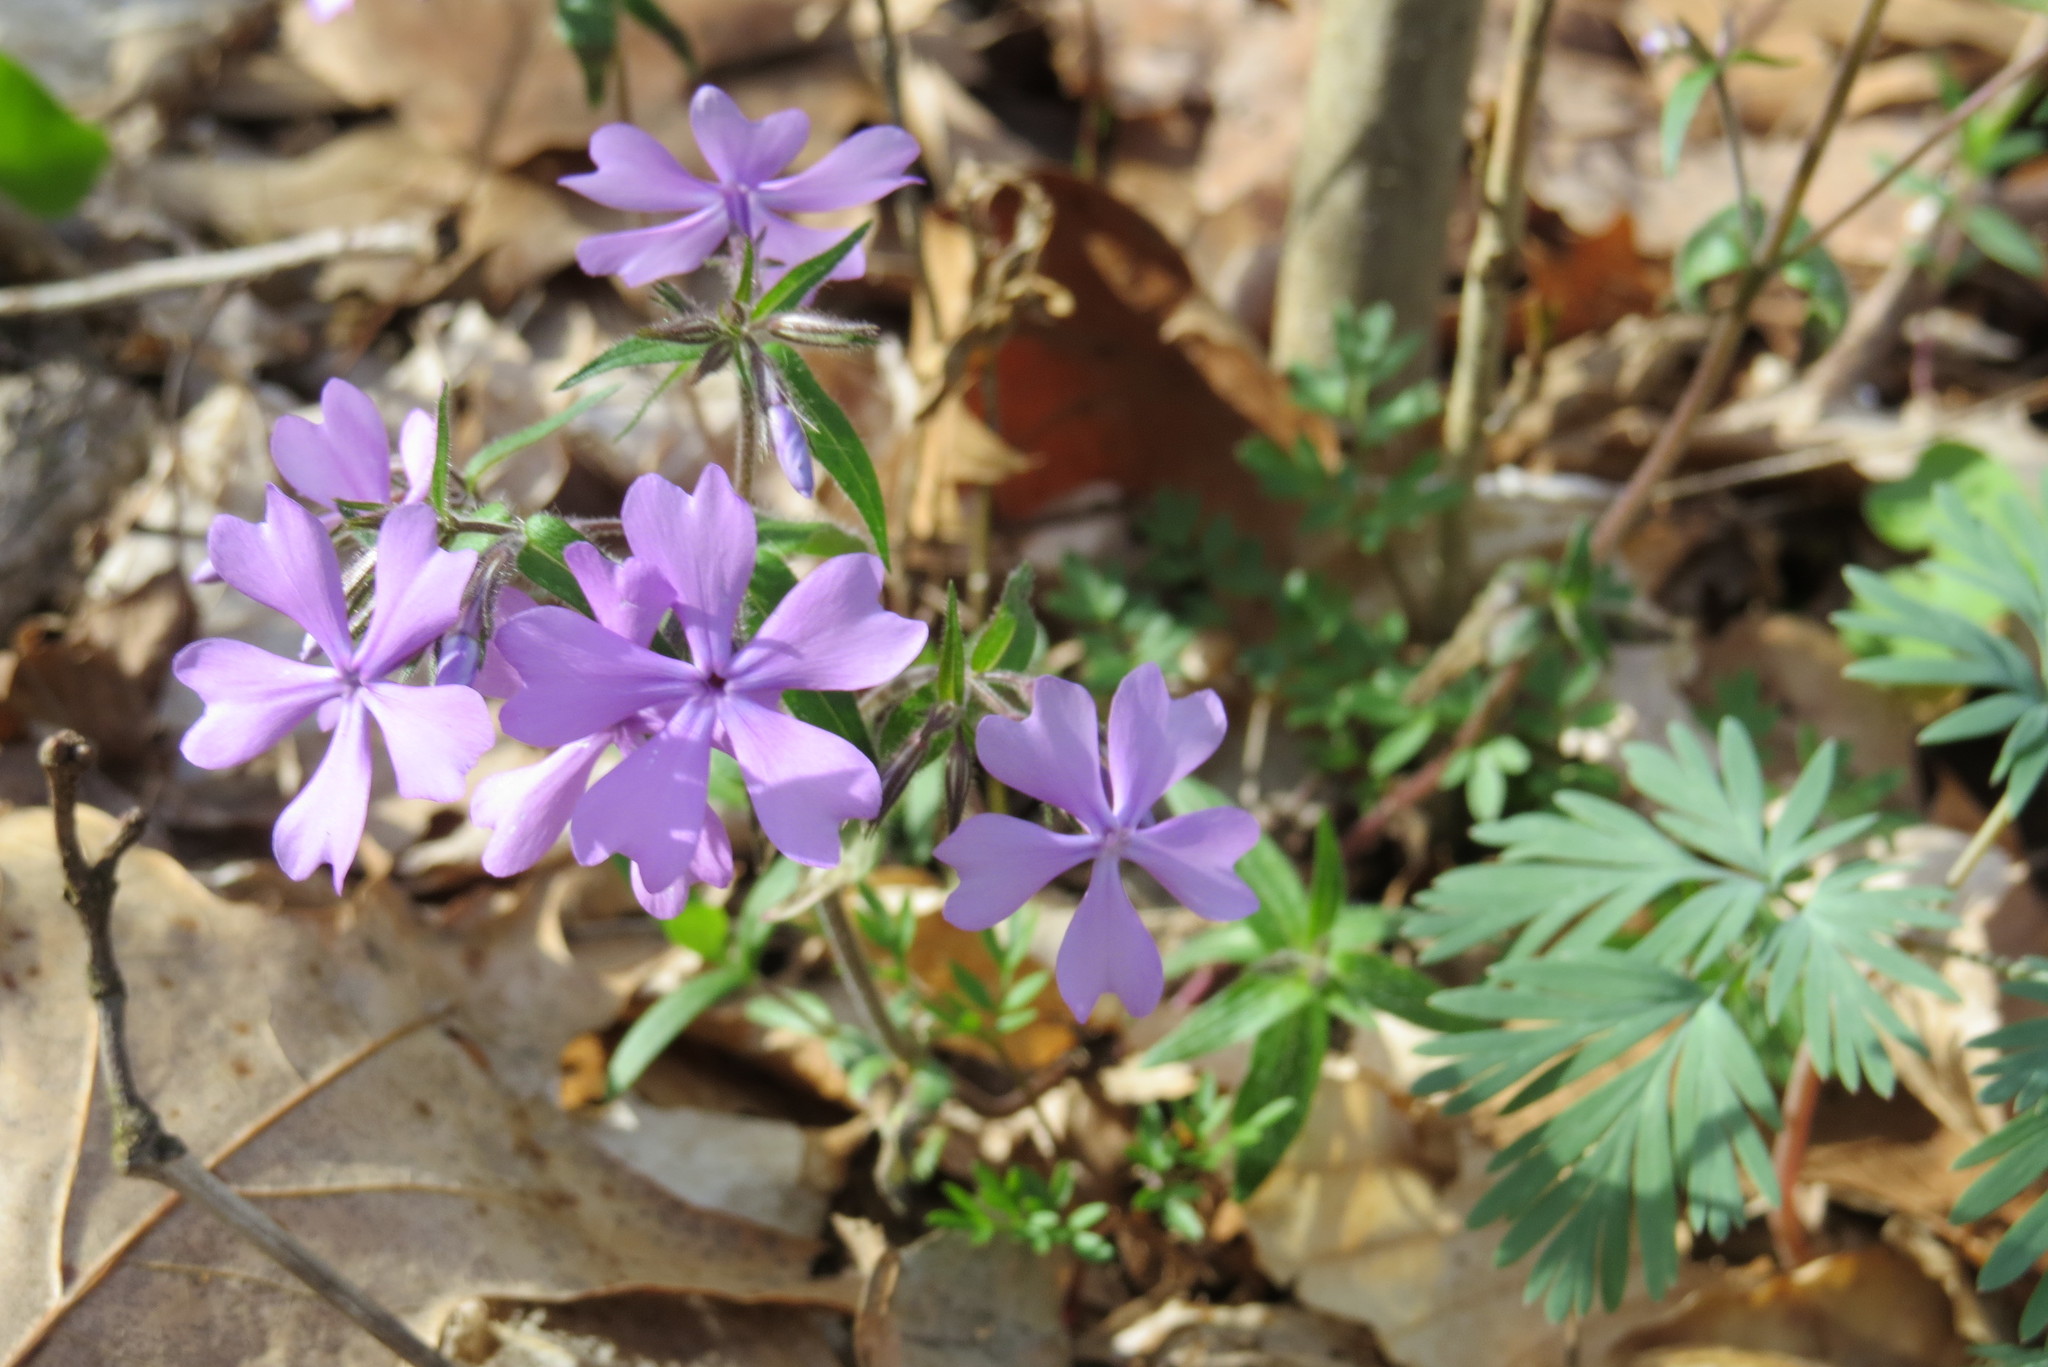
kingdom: Plantae
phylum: Tracheophyta
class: Magnoliopsida
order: Ericales
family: Polemoniaceae
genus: Phlox
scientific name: Phlox divaricata
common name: Blue phlox
